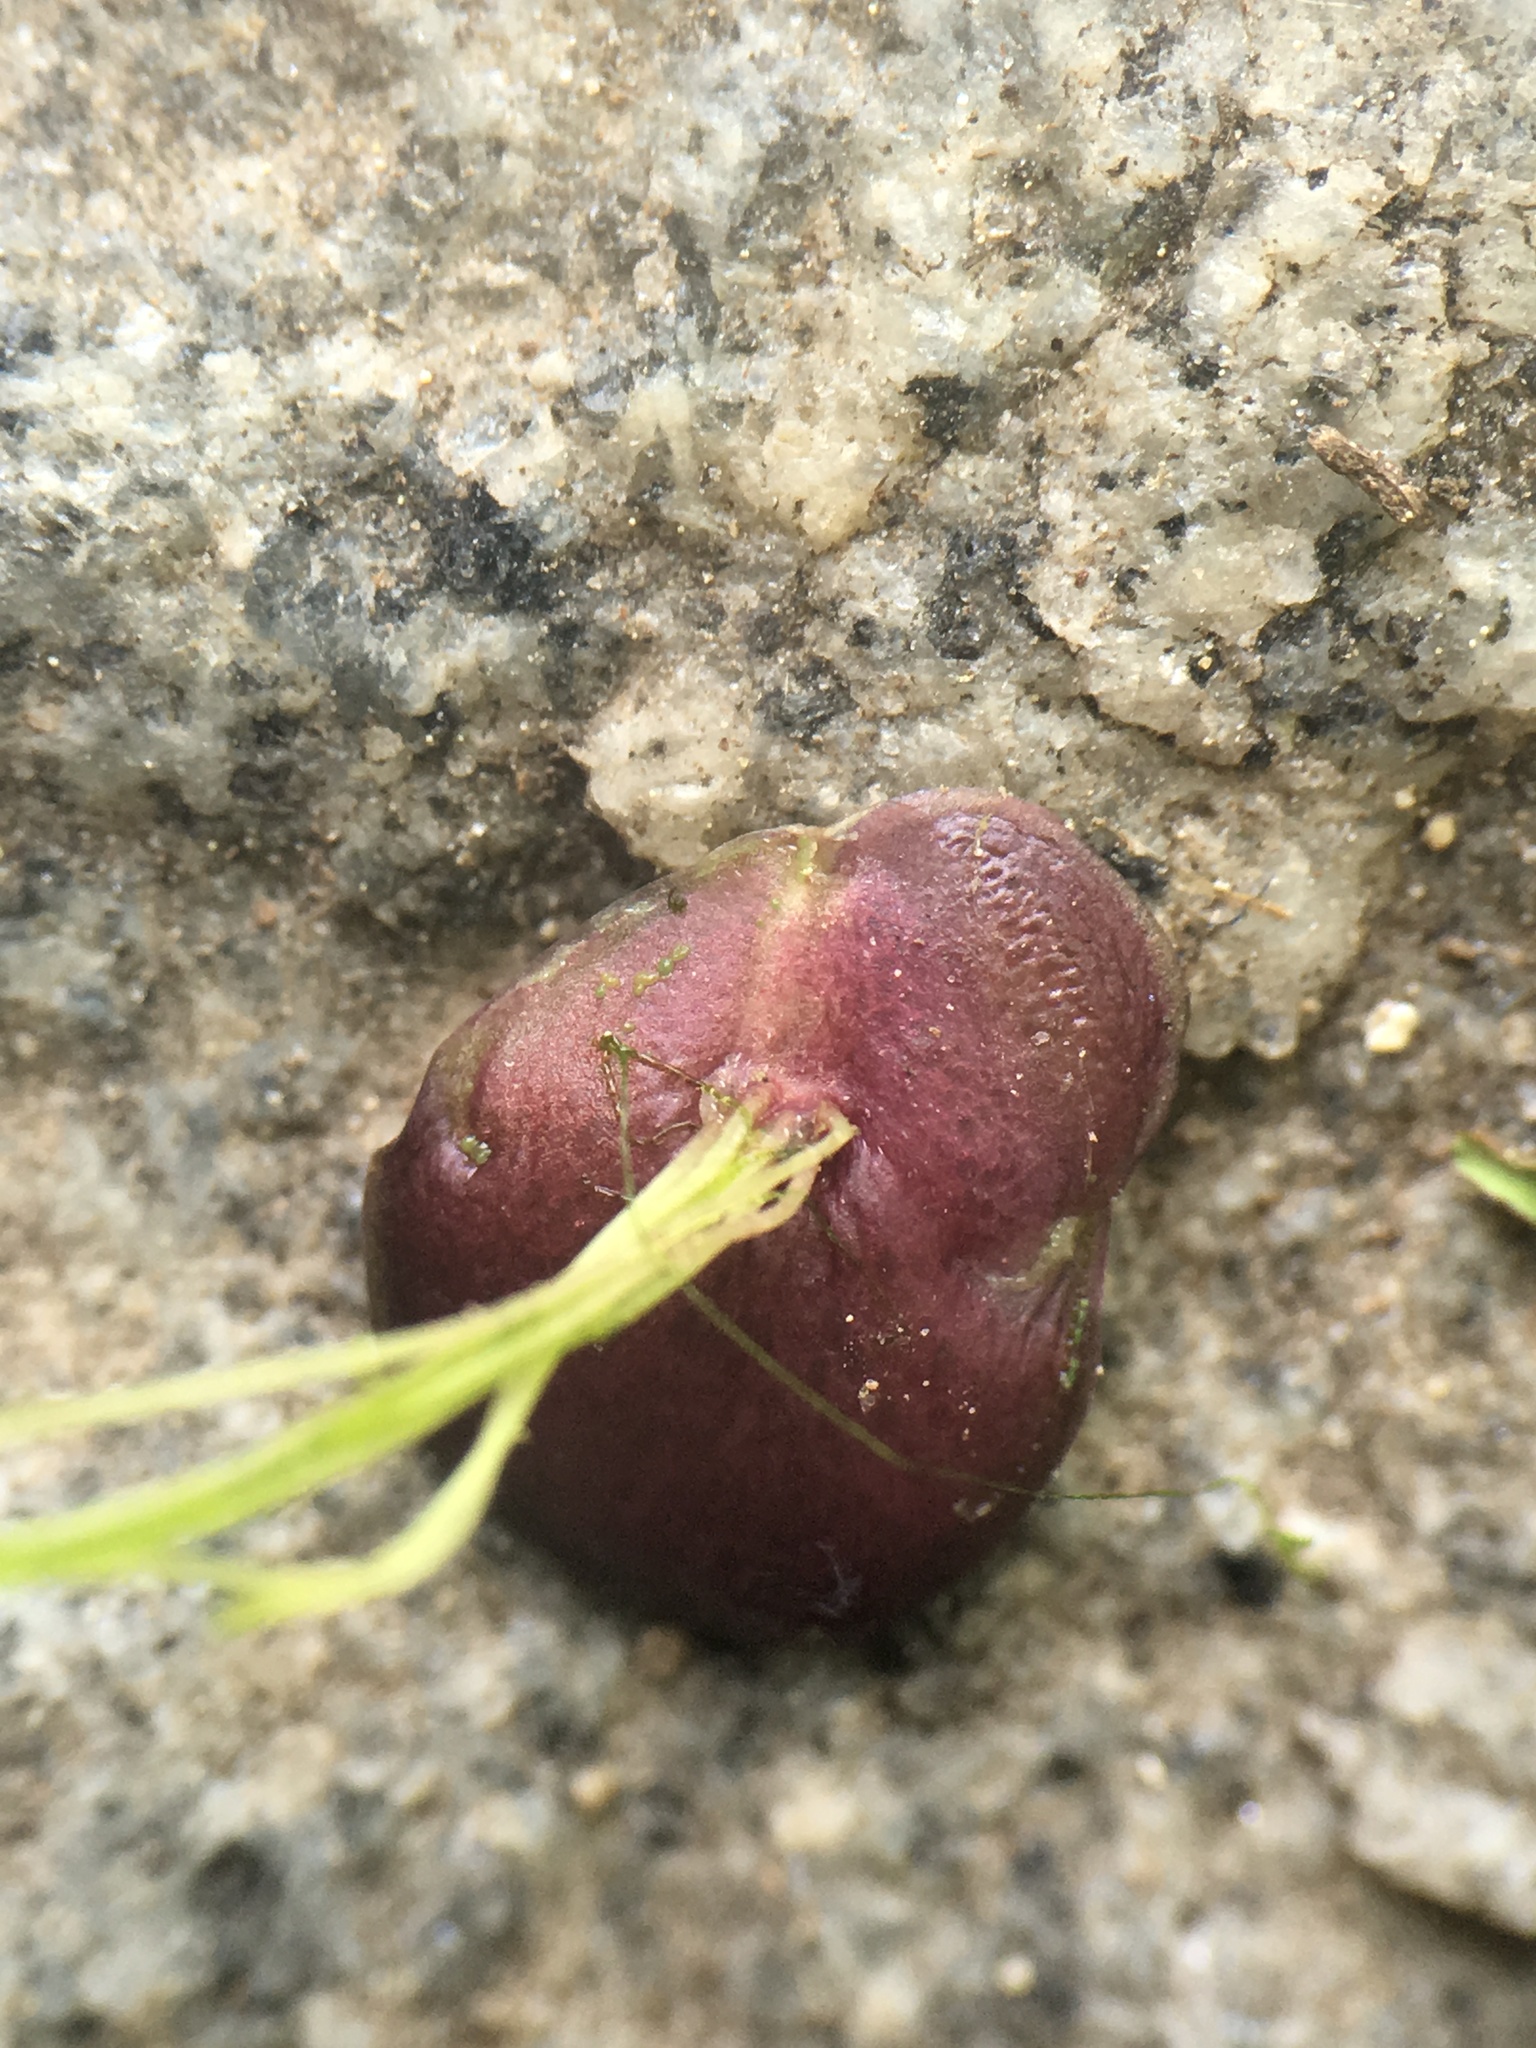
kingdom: Plantae
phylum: Tracheophyta
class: Liliopsida
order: Alismatales
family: Araceae
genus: Spirodela
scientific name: Spirodela polyrhiza
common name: Great duckweed
